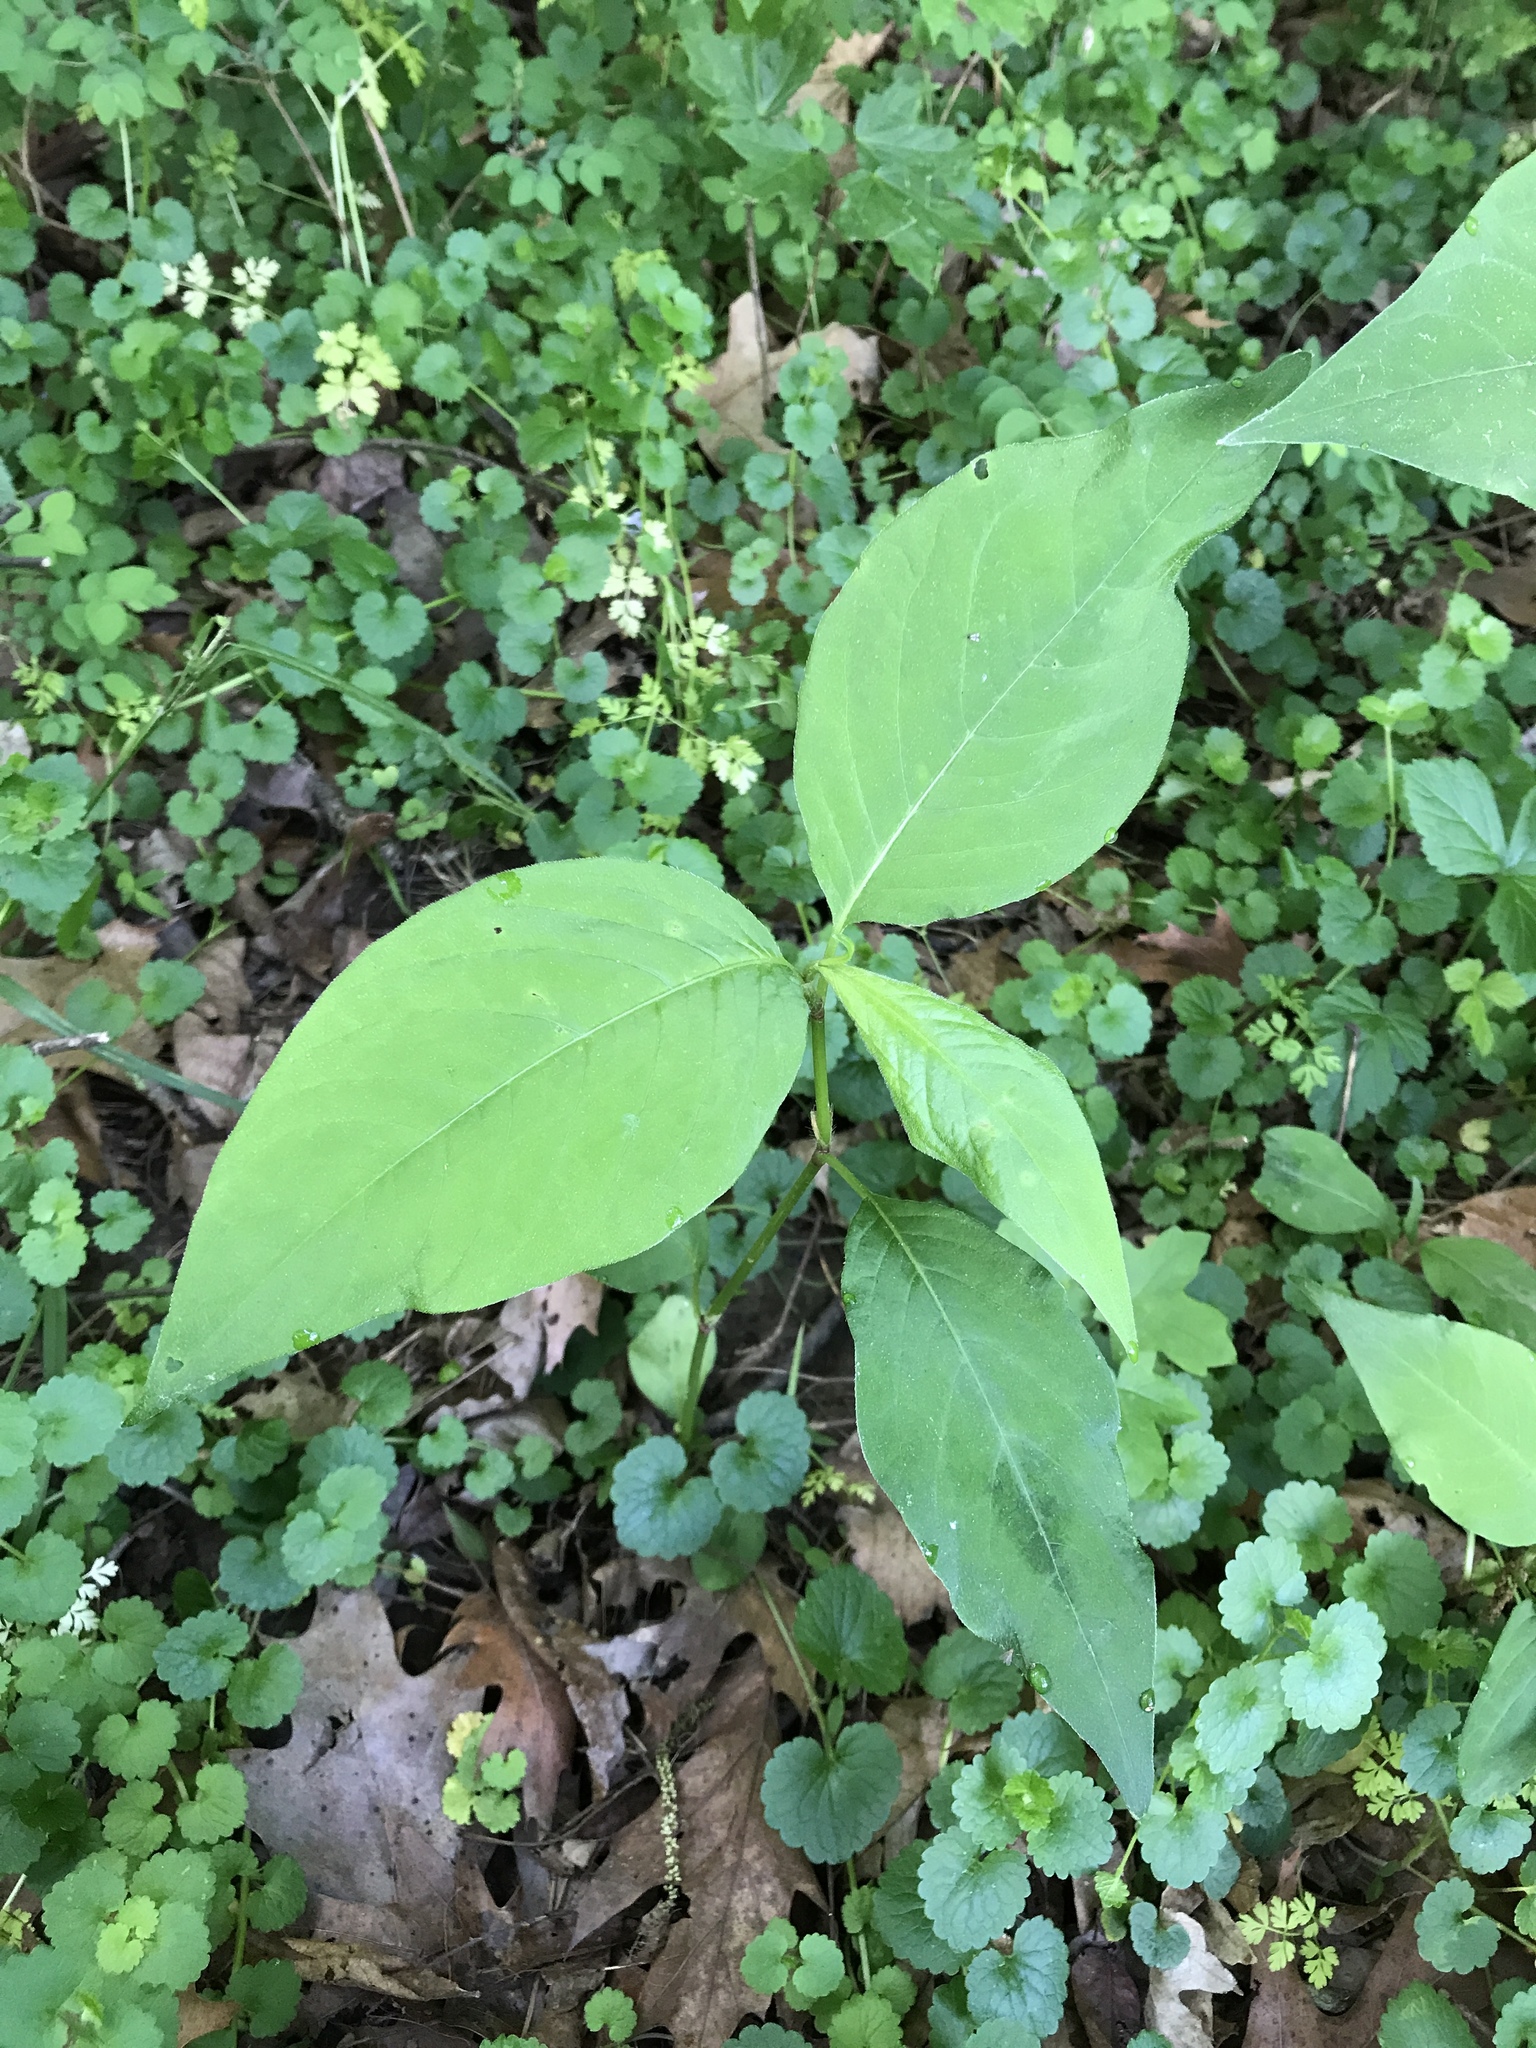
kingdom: Plantae
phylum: Tracheophyta
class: Magnoliopsida
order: Caryophyllales
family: Polygonaceae
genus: Persicaria
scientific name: Persicaria virginiana
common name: Jumpseed
